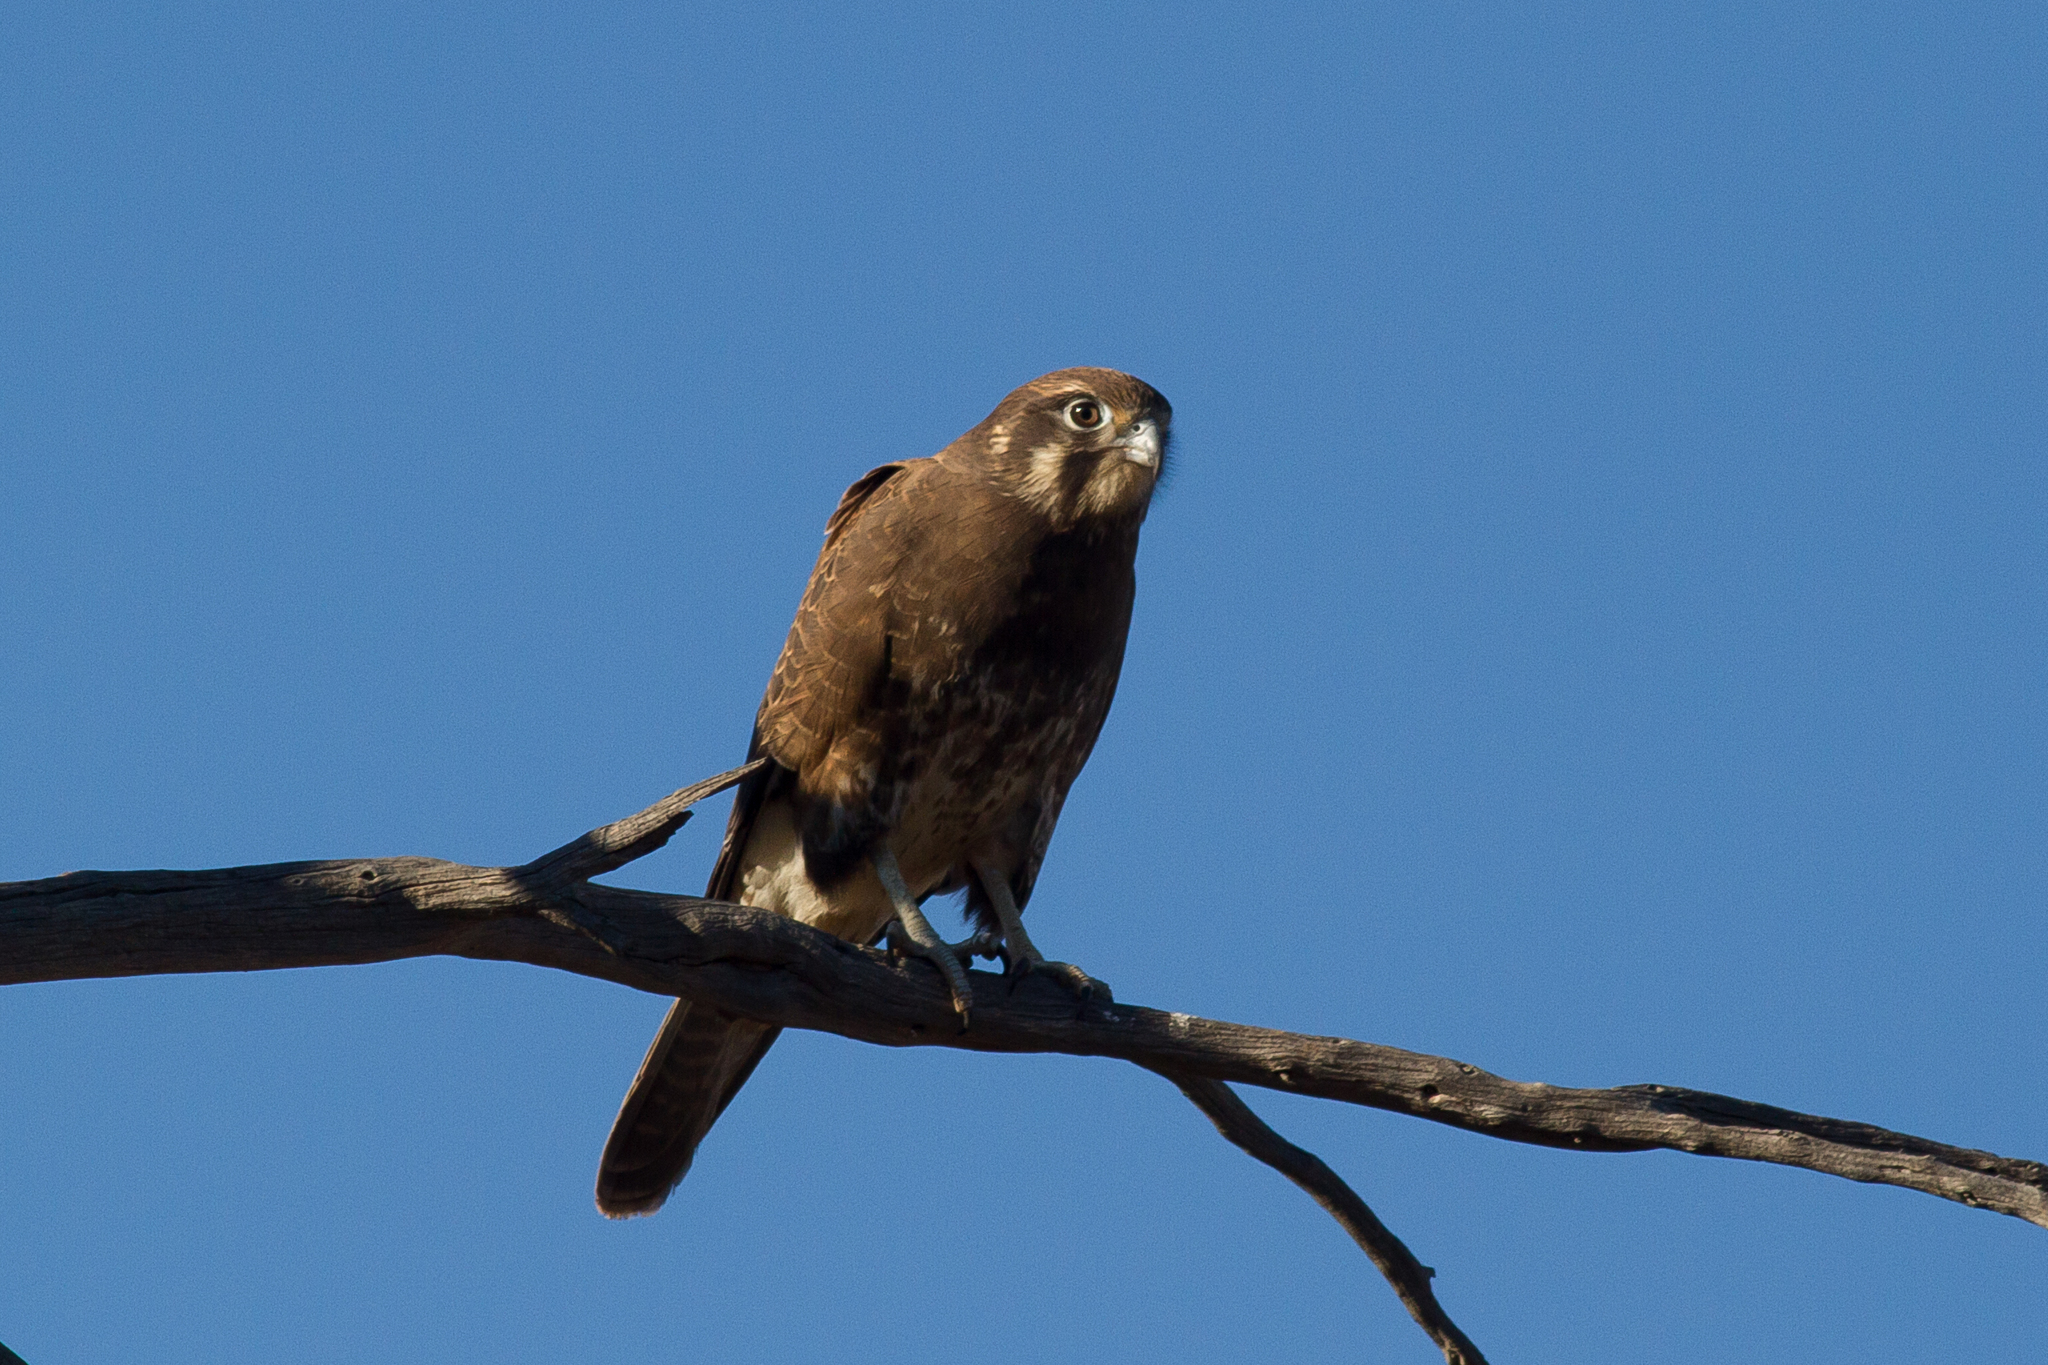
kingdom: Animalia
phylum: Chordata
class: Aves
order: Falconiformes
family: Falconidae
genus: Falco
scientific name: Falco berigora
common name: Brown falcon
